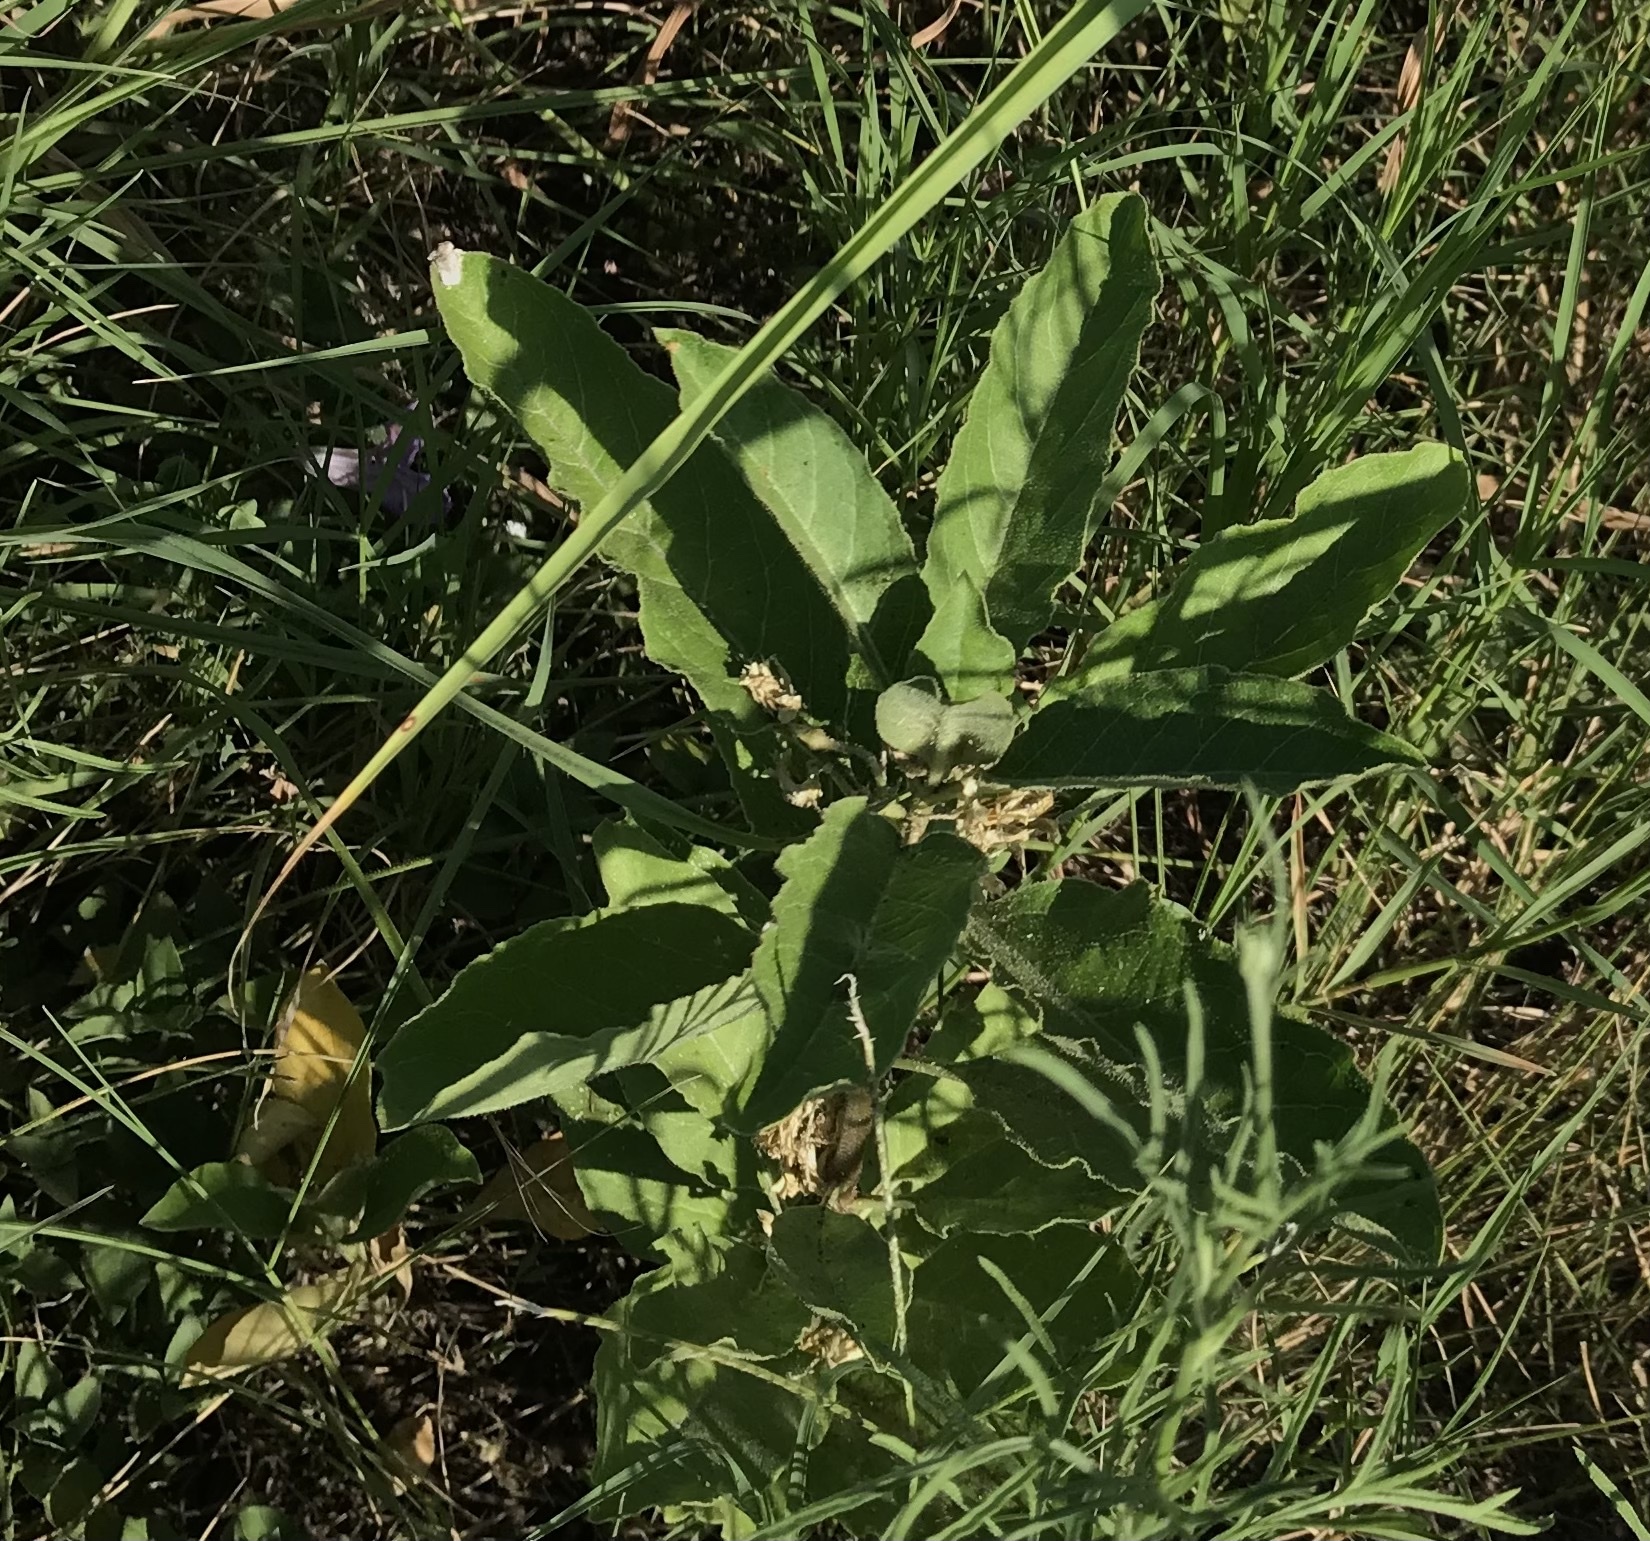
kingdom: Plantae
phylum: Tracheophyta
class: Magnoliopsida
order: Gentianales
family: Apocynaceae
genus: Asclepias
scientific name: Asclepias oenotheroides
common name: Zizotes milkweed
